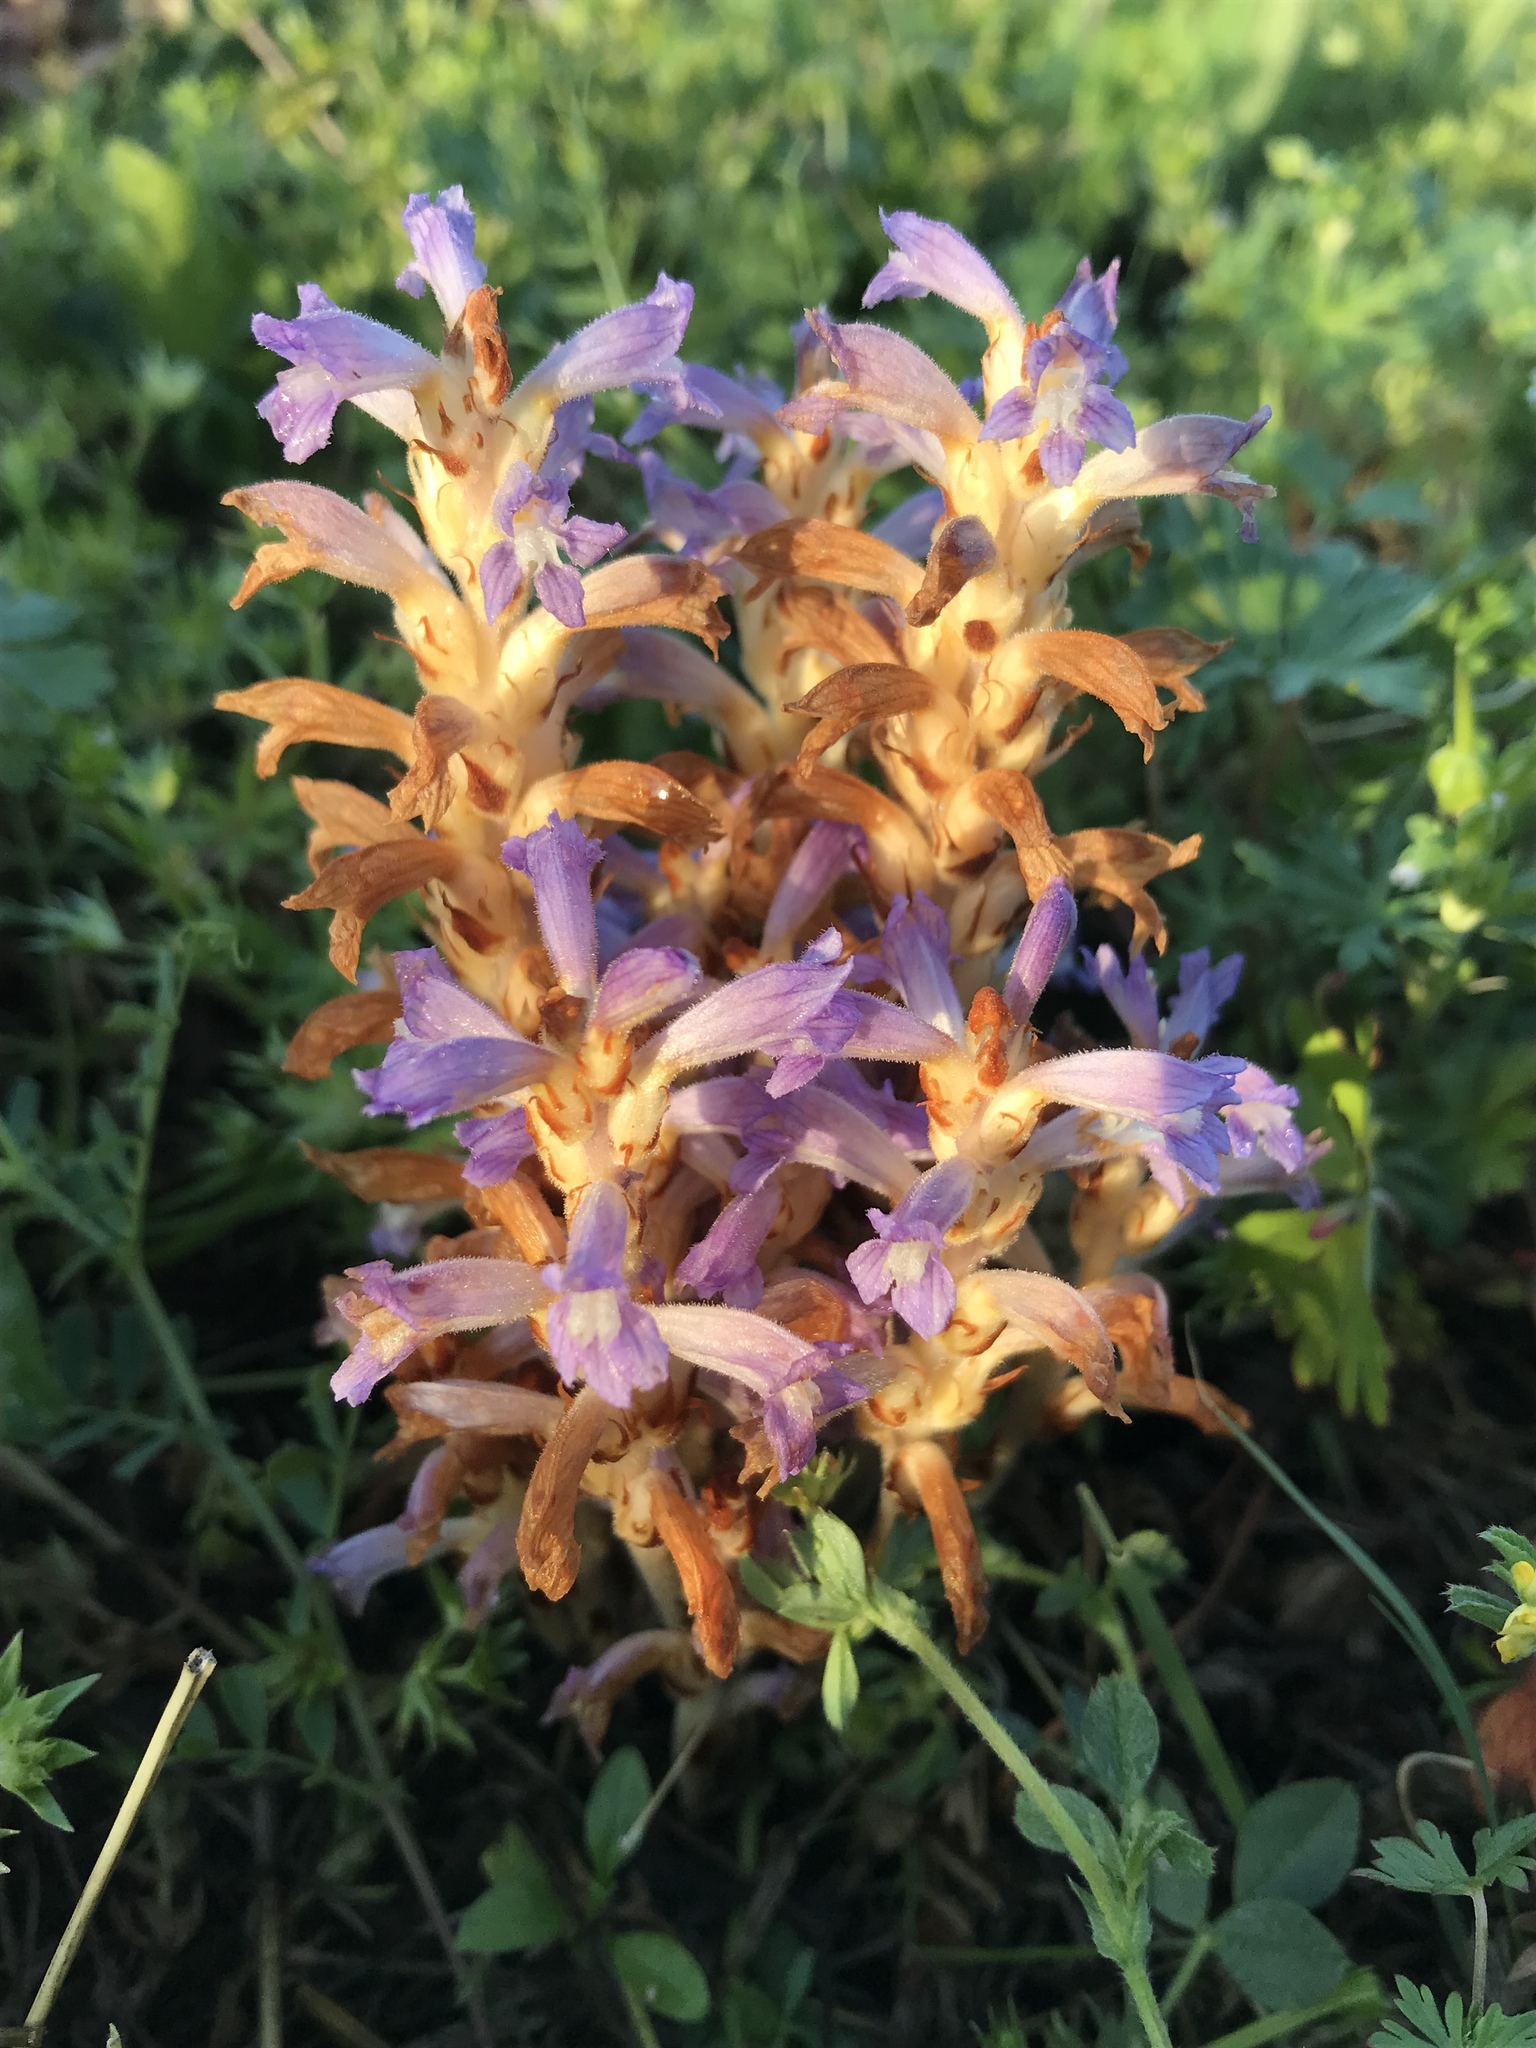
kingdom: Plantae
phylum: Tracheophyta
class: Magnoliopsida
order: Lamiales
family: Orobanchaceae
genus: Phelipanche
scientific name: Phelipanche mutelii
